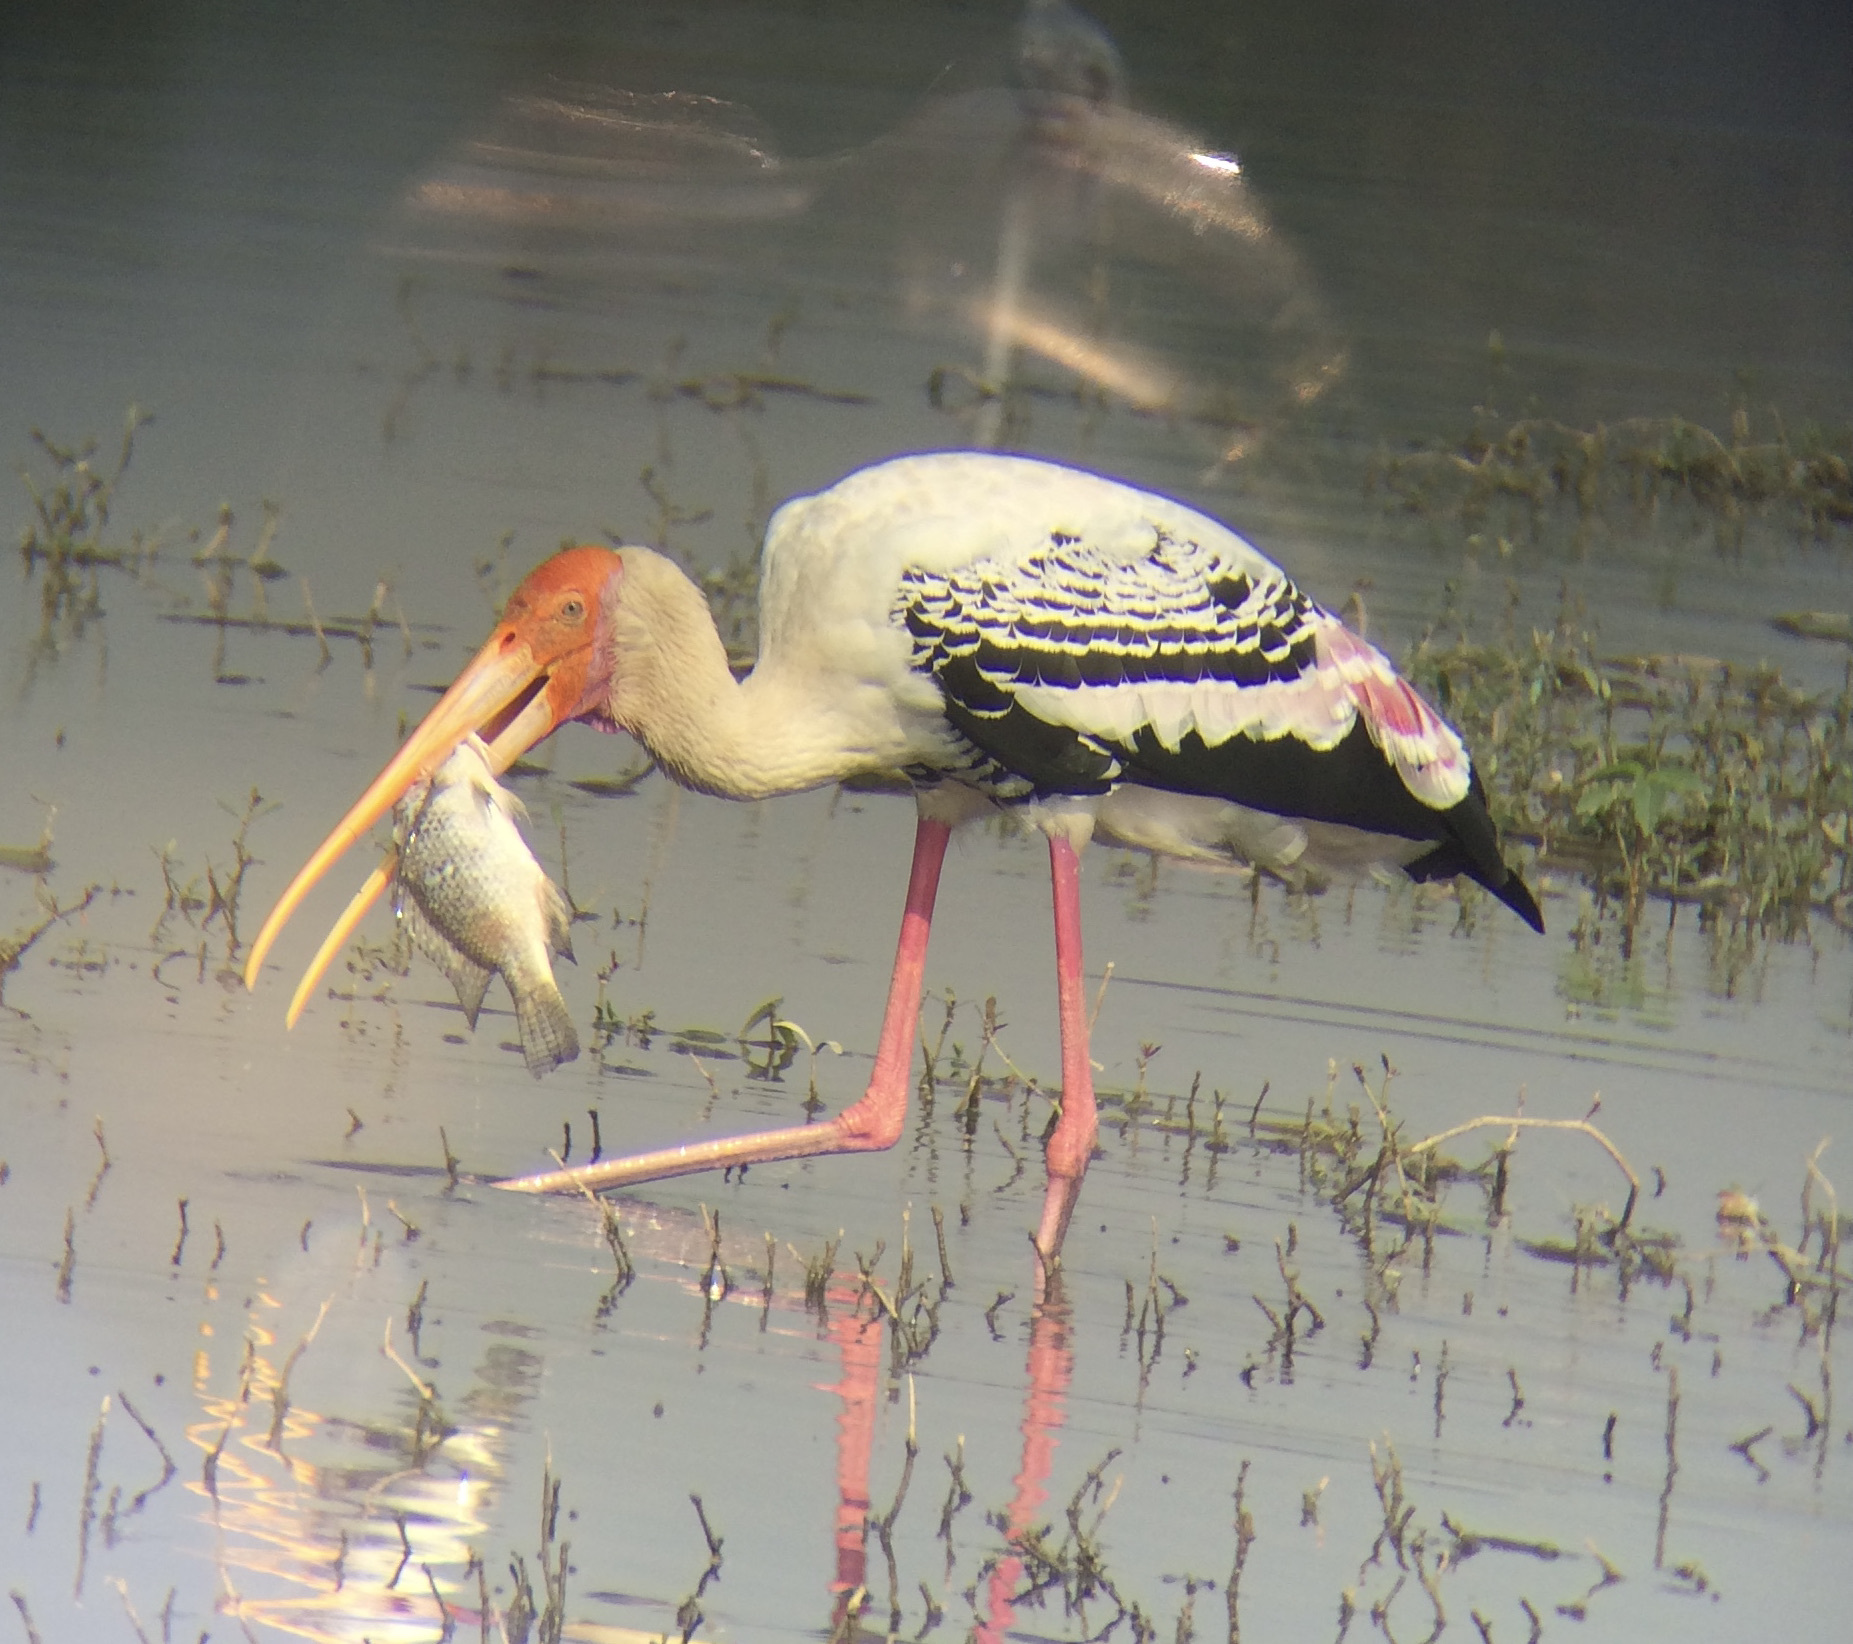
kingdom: Animalia
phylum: Chordata
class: Aves
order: Ciconiiformes
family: Ciconiidae
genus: Mycteria
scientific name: Mycteria leucocephala
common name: Painted stork
